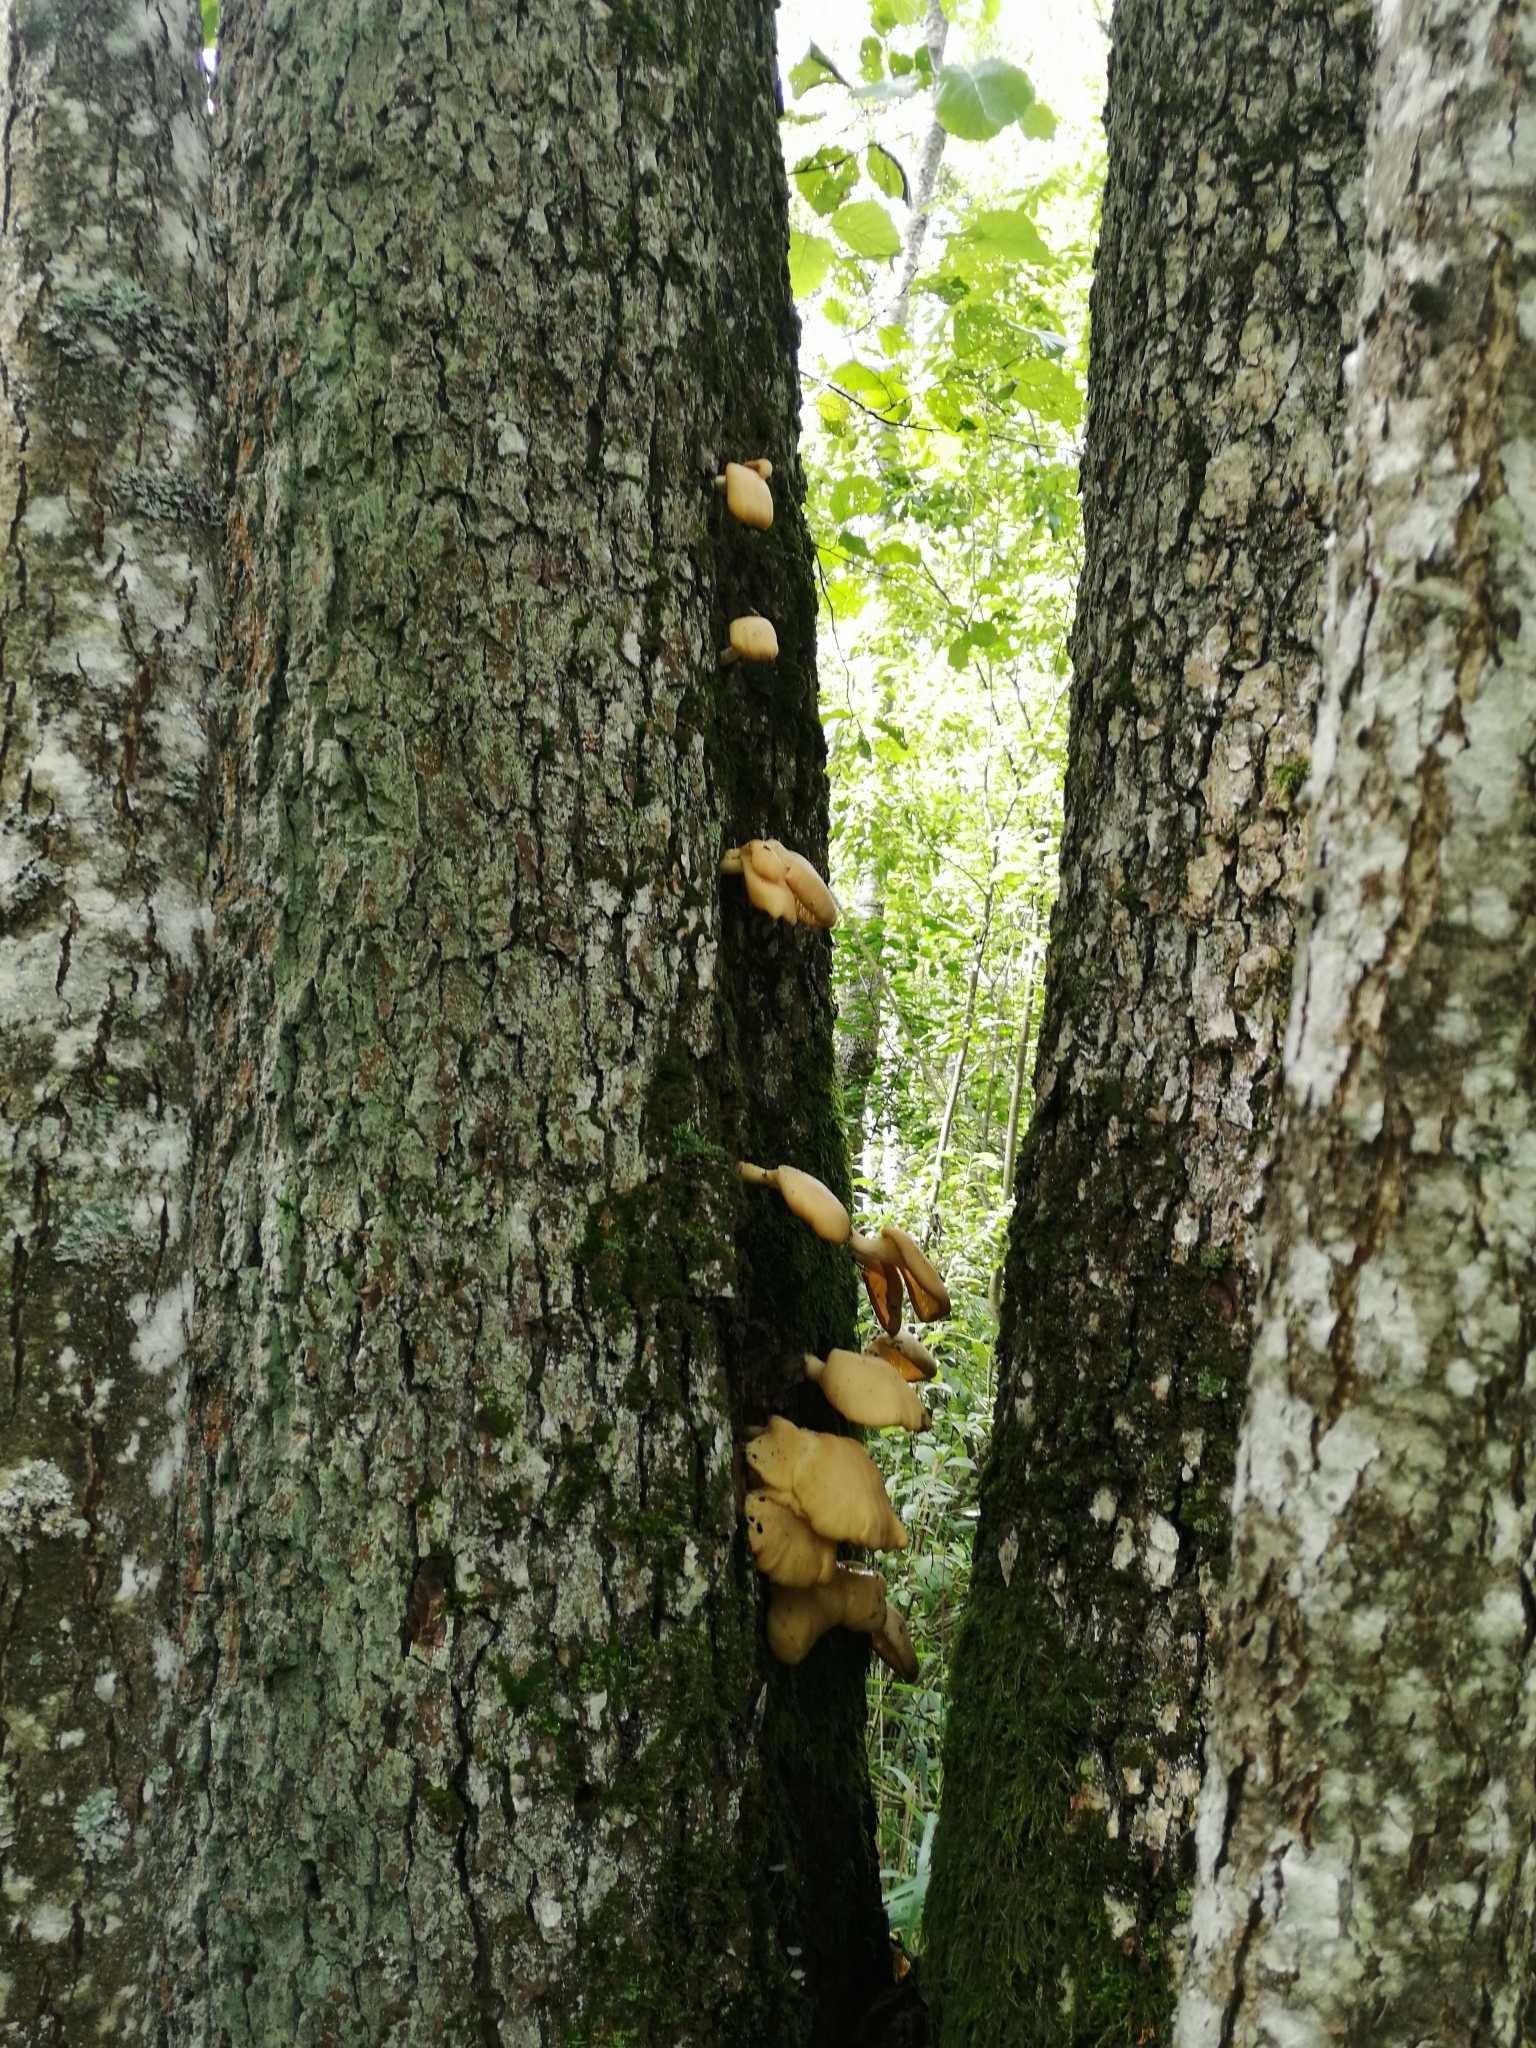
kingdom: Fungi
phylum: Basidiomycota
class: Agaricomycetes
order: Agaricales
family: Pleurotaceae
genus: Pleurotus
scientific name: Pleurotus pulmonarius
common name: Pale oyster
